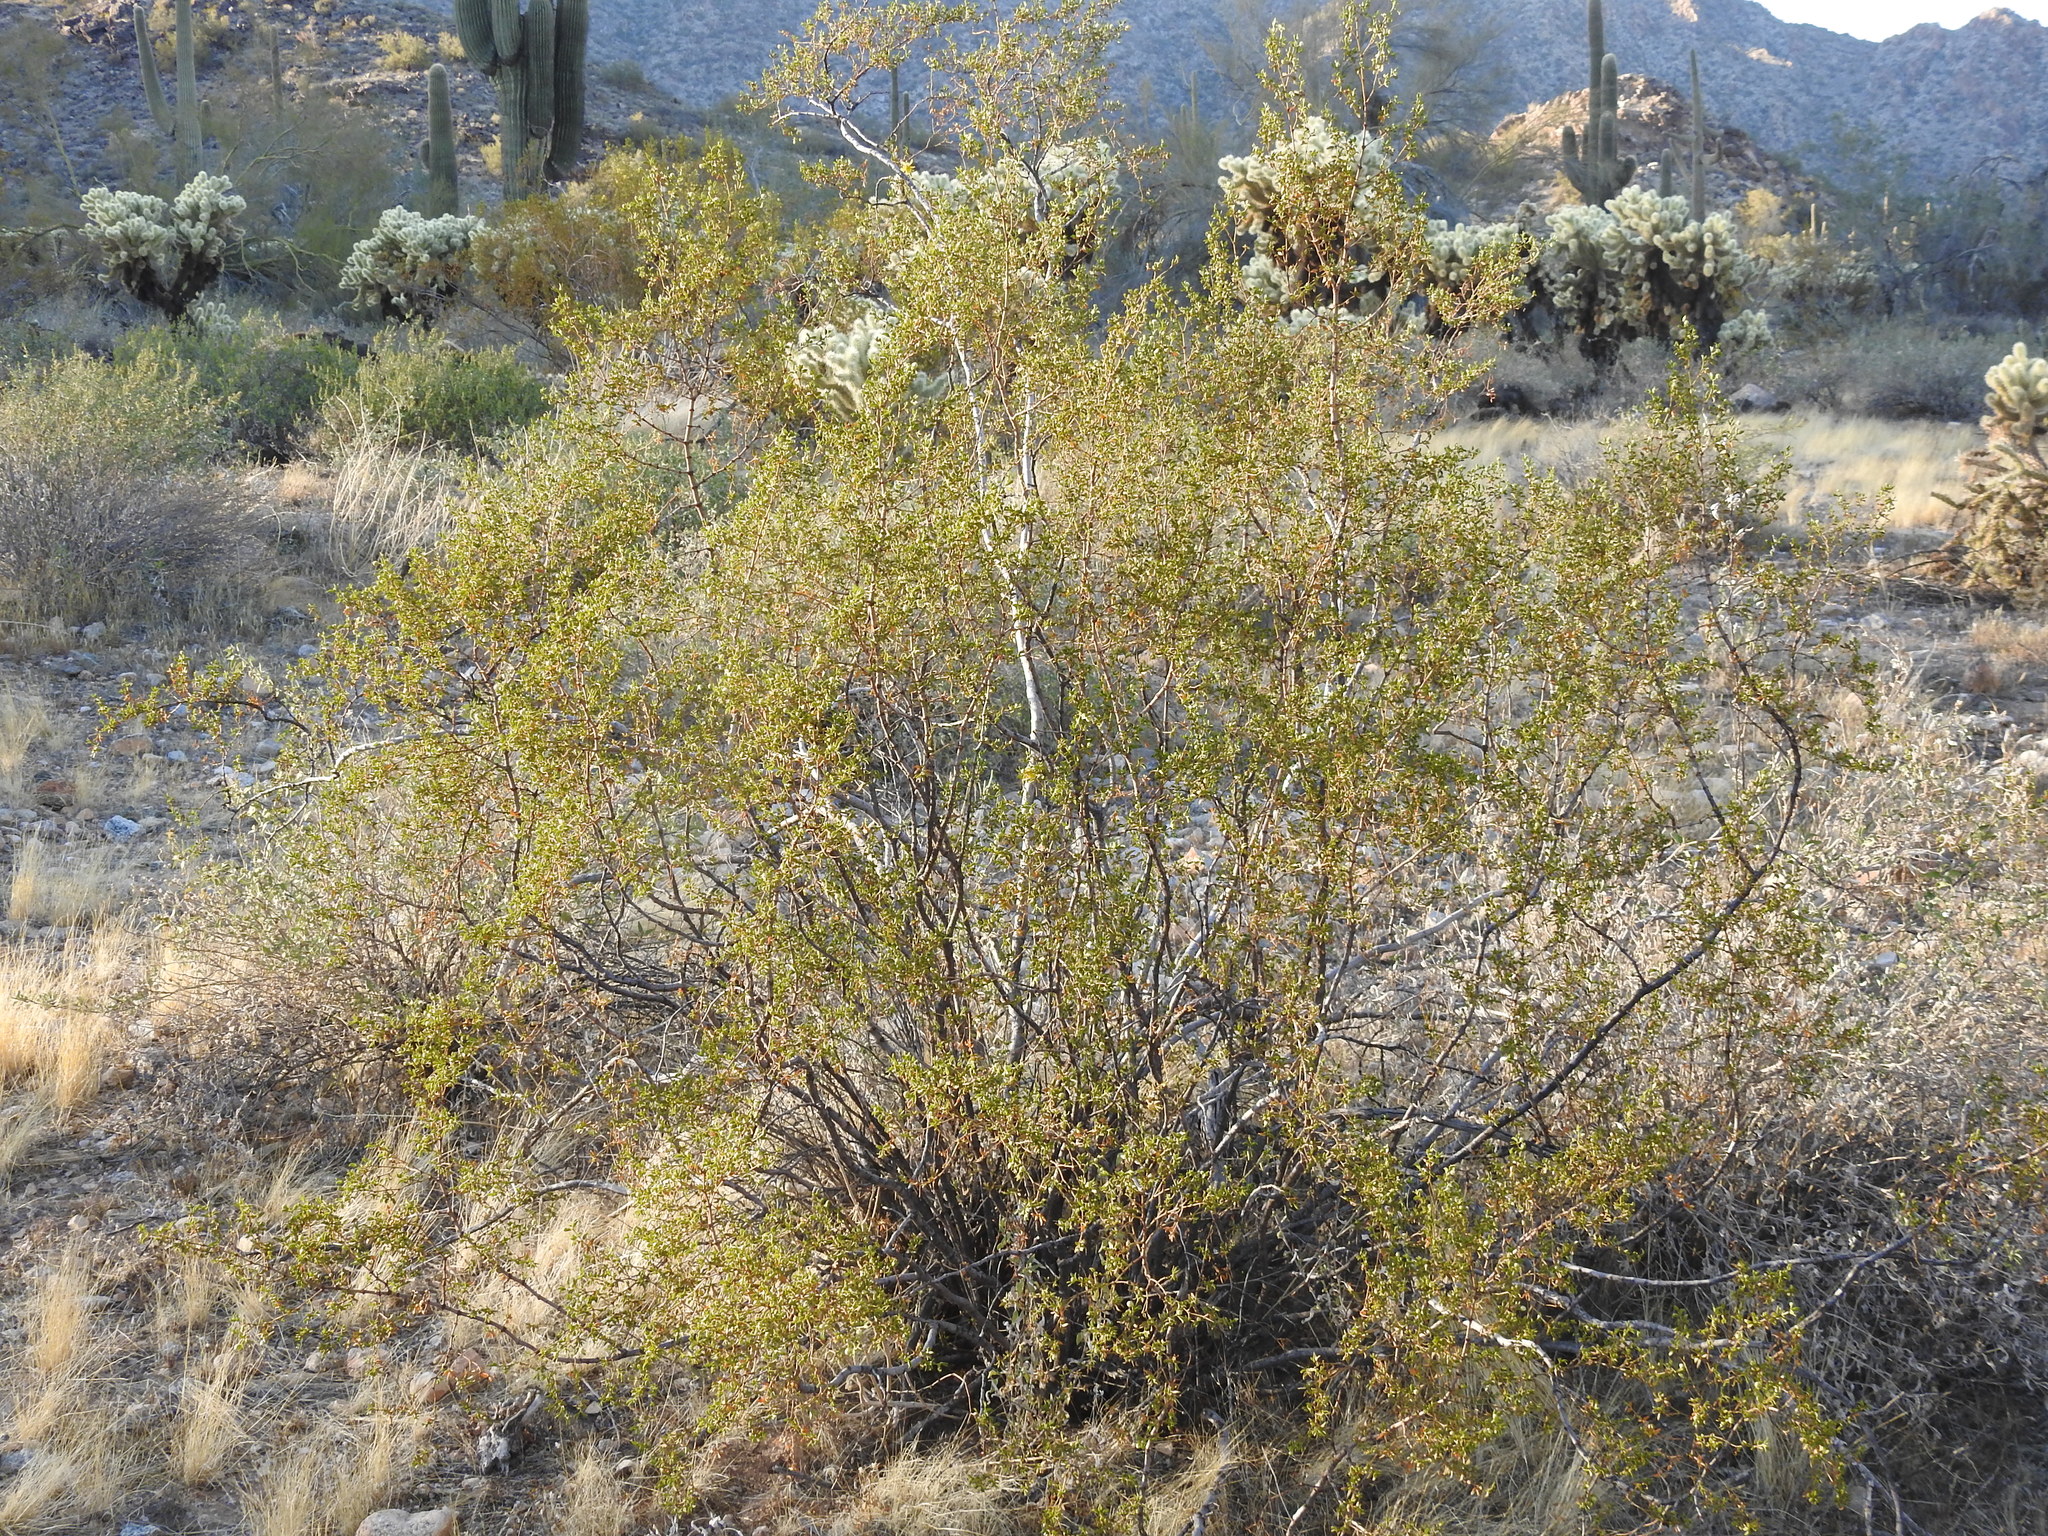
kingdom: Plantae
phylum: Tracheophyta
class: Magnoliopsida
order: Zygophyllales
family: Zygophyllaceae
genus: Larrea
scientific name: Larrea tridentata
